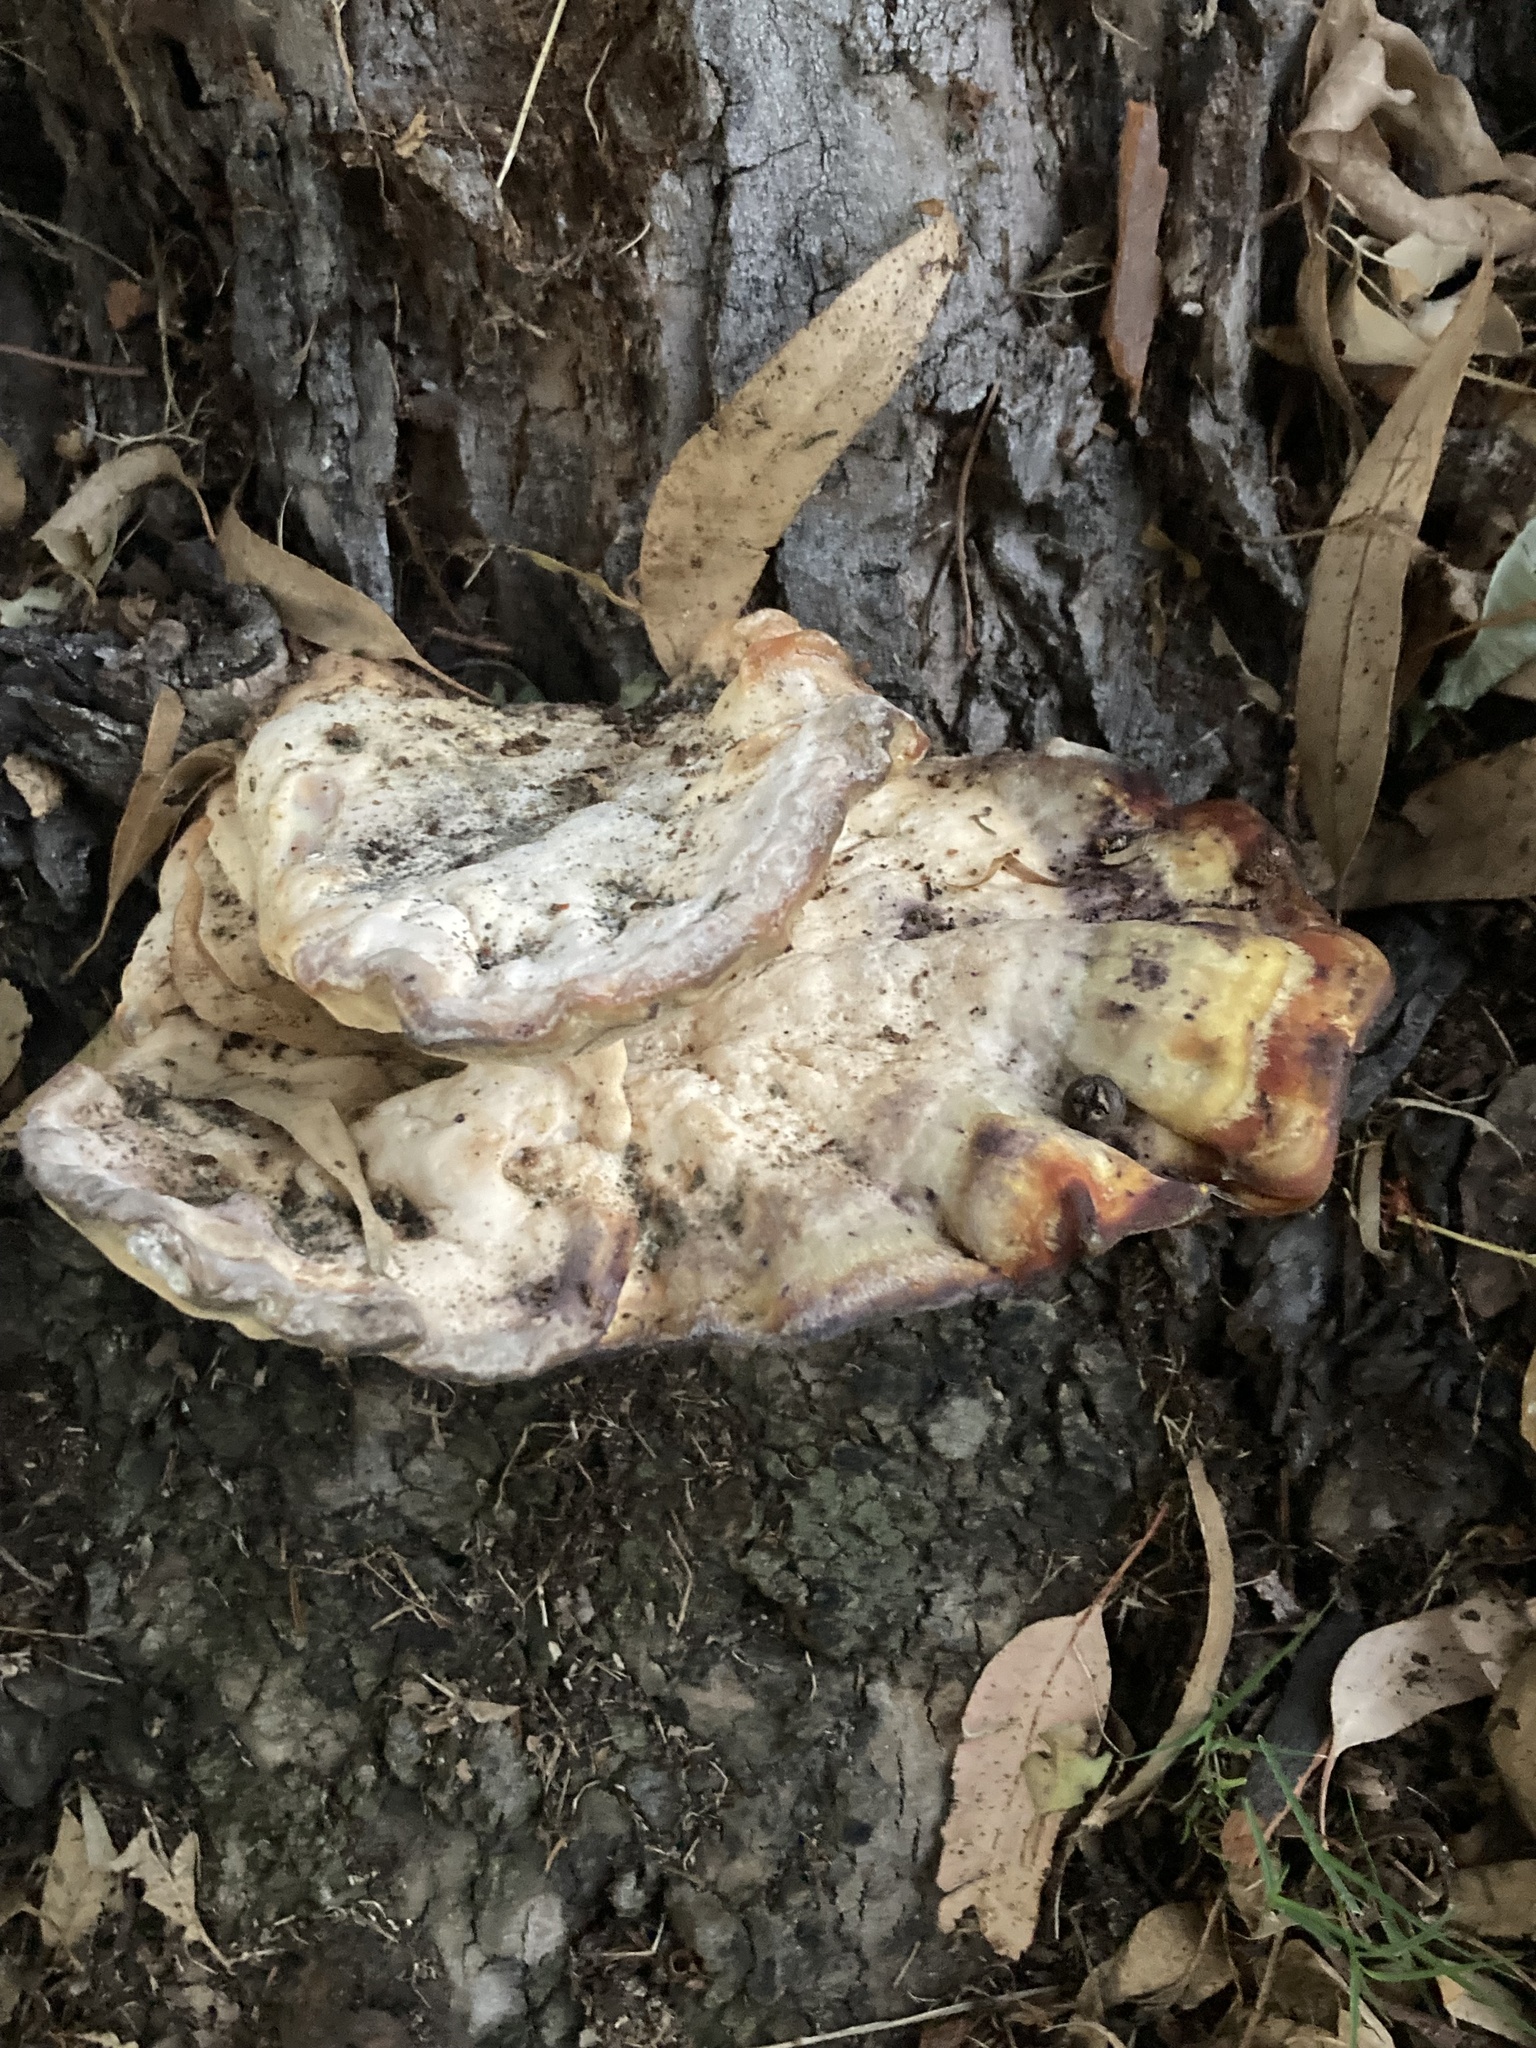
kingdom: Fungi
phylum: Basidiomycota
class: Agaricomycetes
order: Polyporales
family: Laetiporaceae
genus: Laetiporus
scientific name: Laetiporus gilbertsonii
